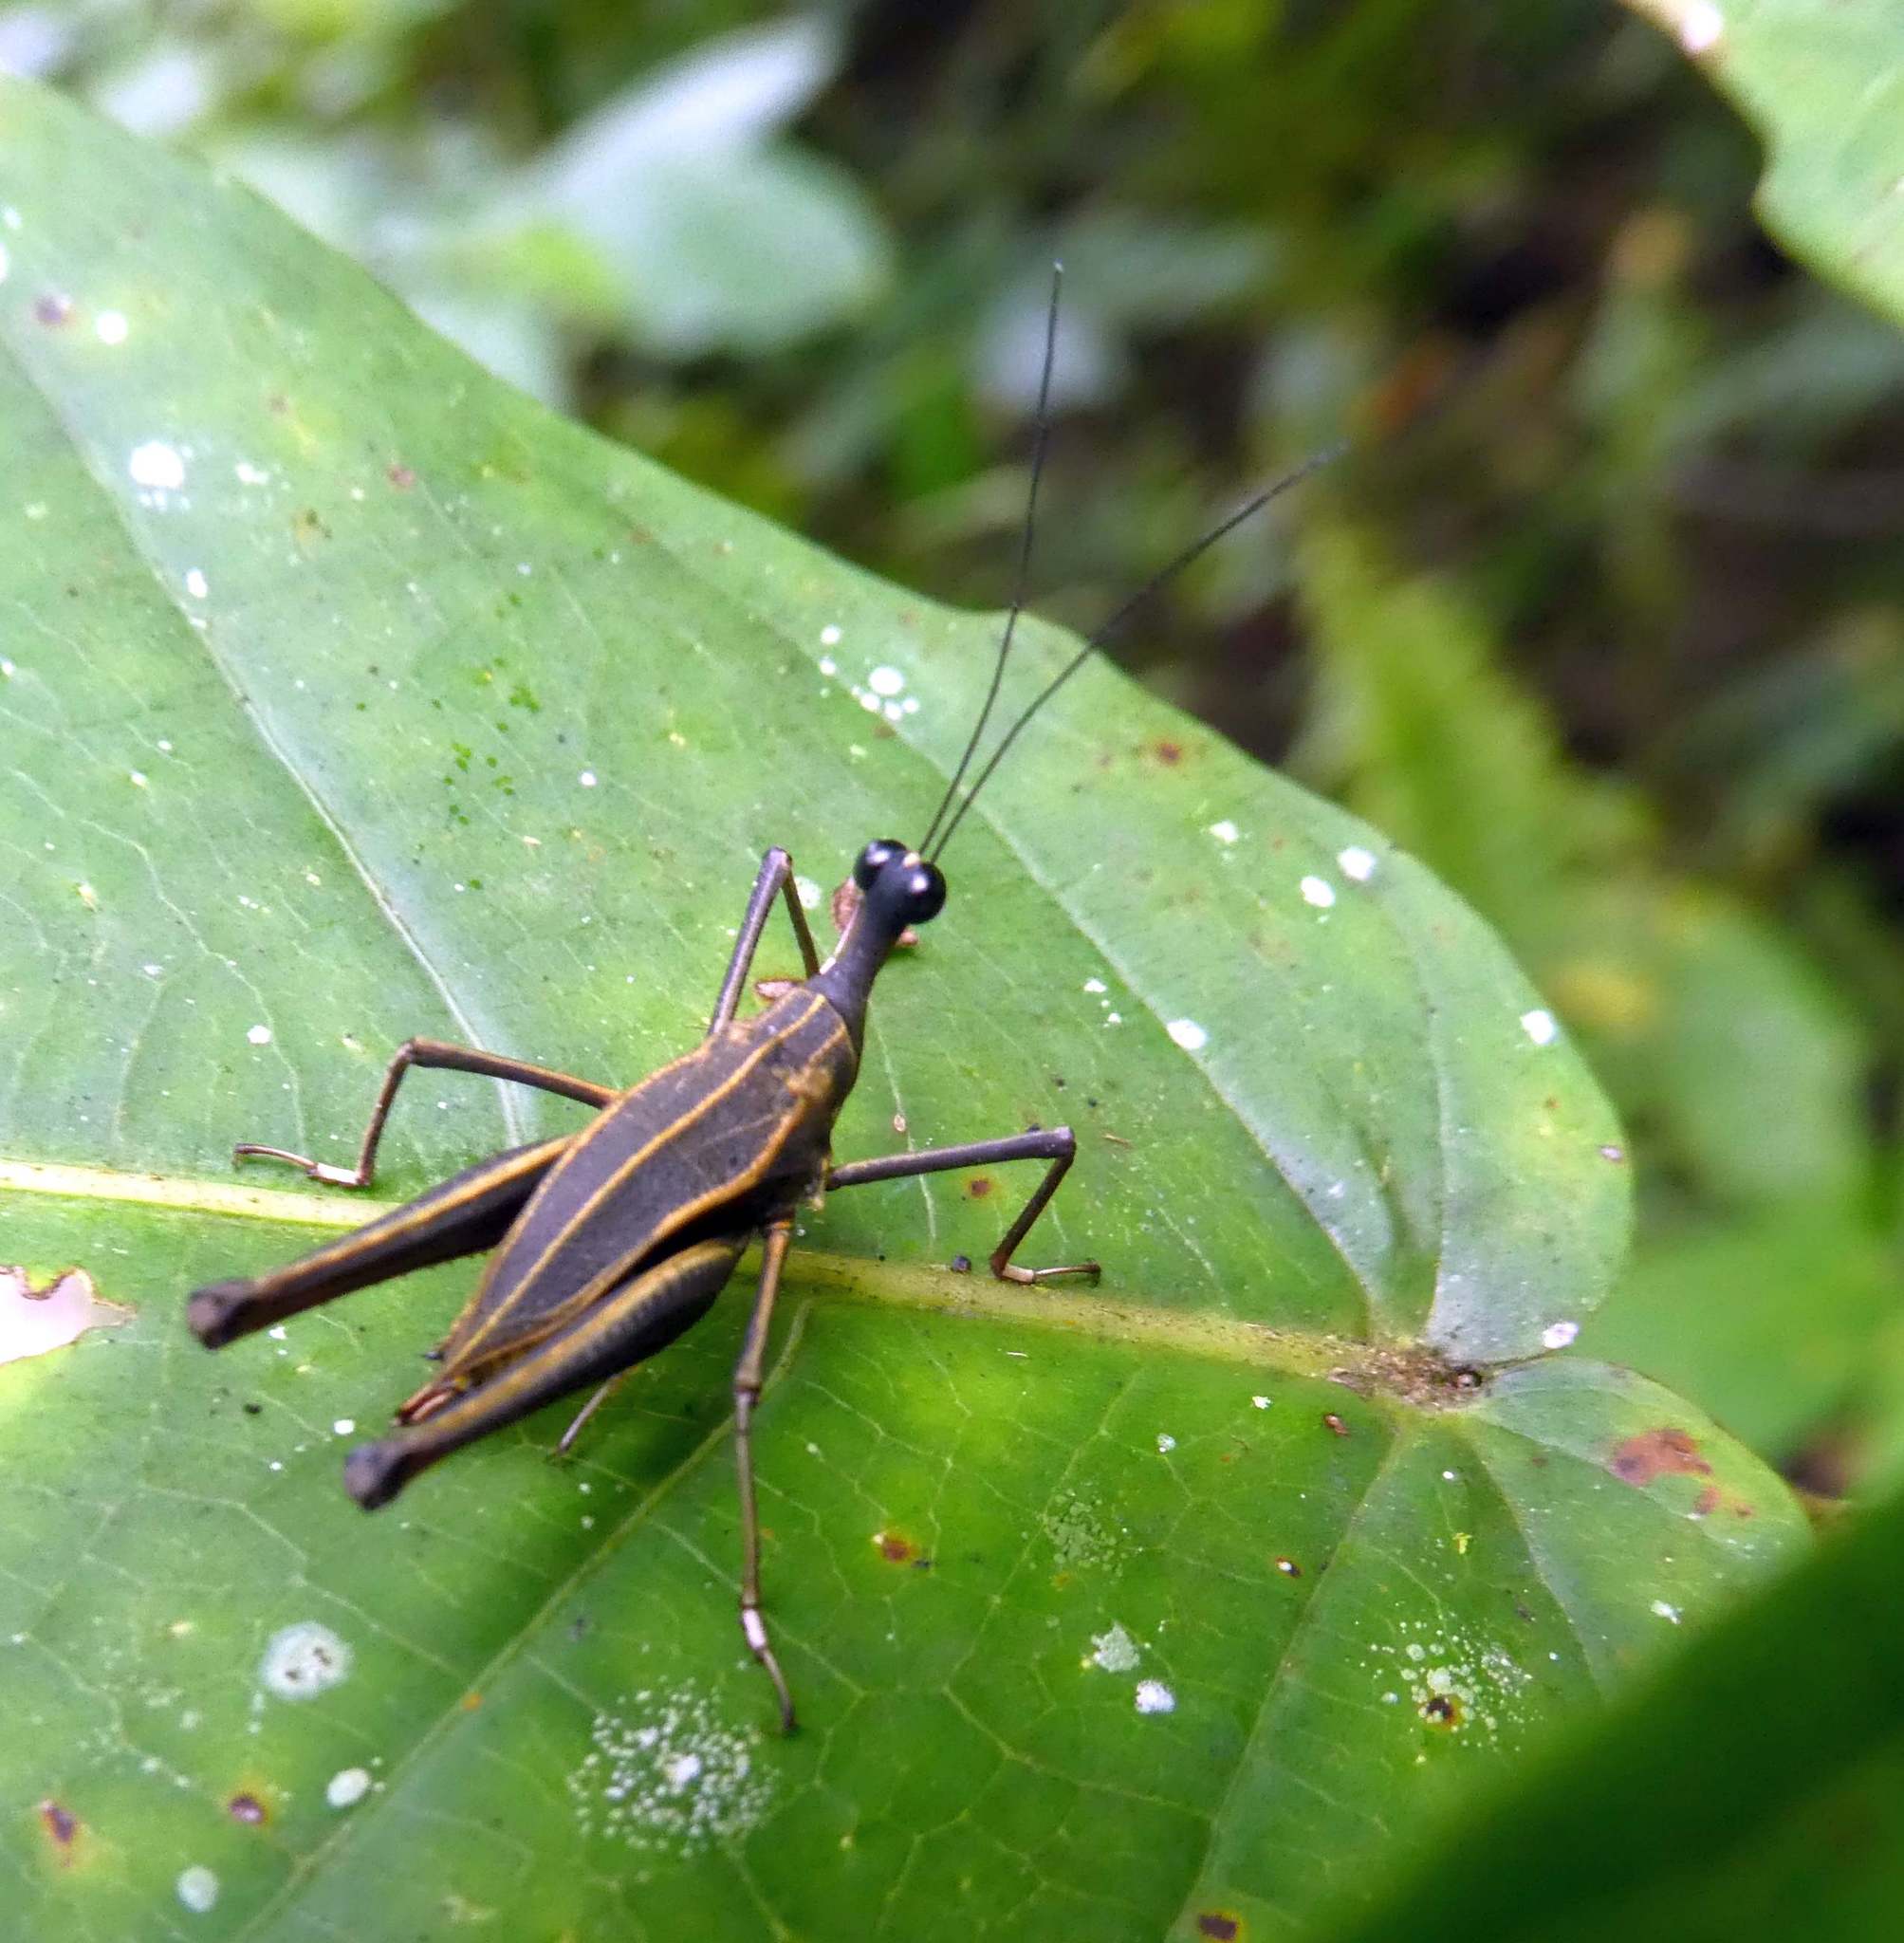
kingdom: Animalia
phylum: Arthropoda
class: Insecta
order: Orthoptera
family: Tetrigidae
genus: Ophiotettix
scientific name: Ophiotettix mountnokensis
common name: Mount nok giraffehopper
